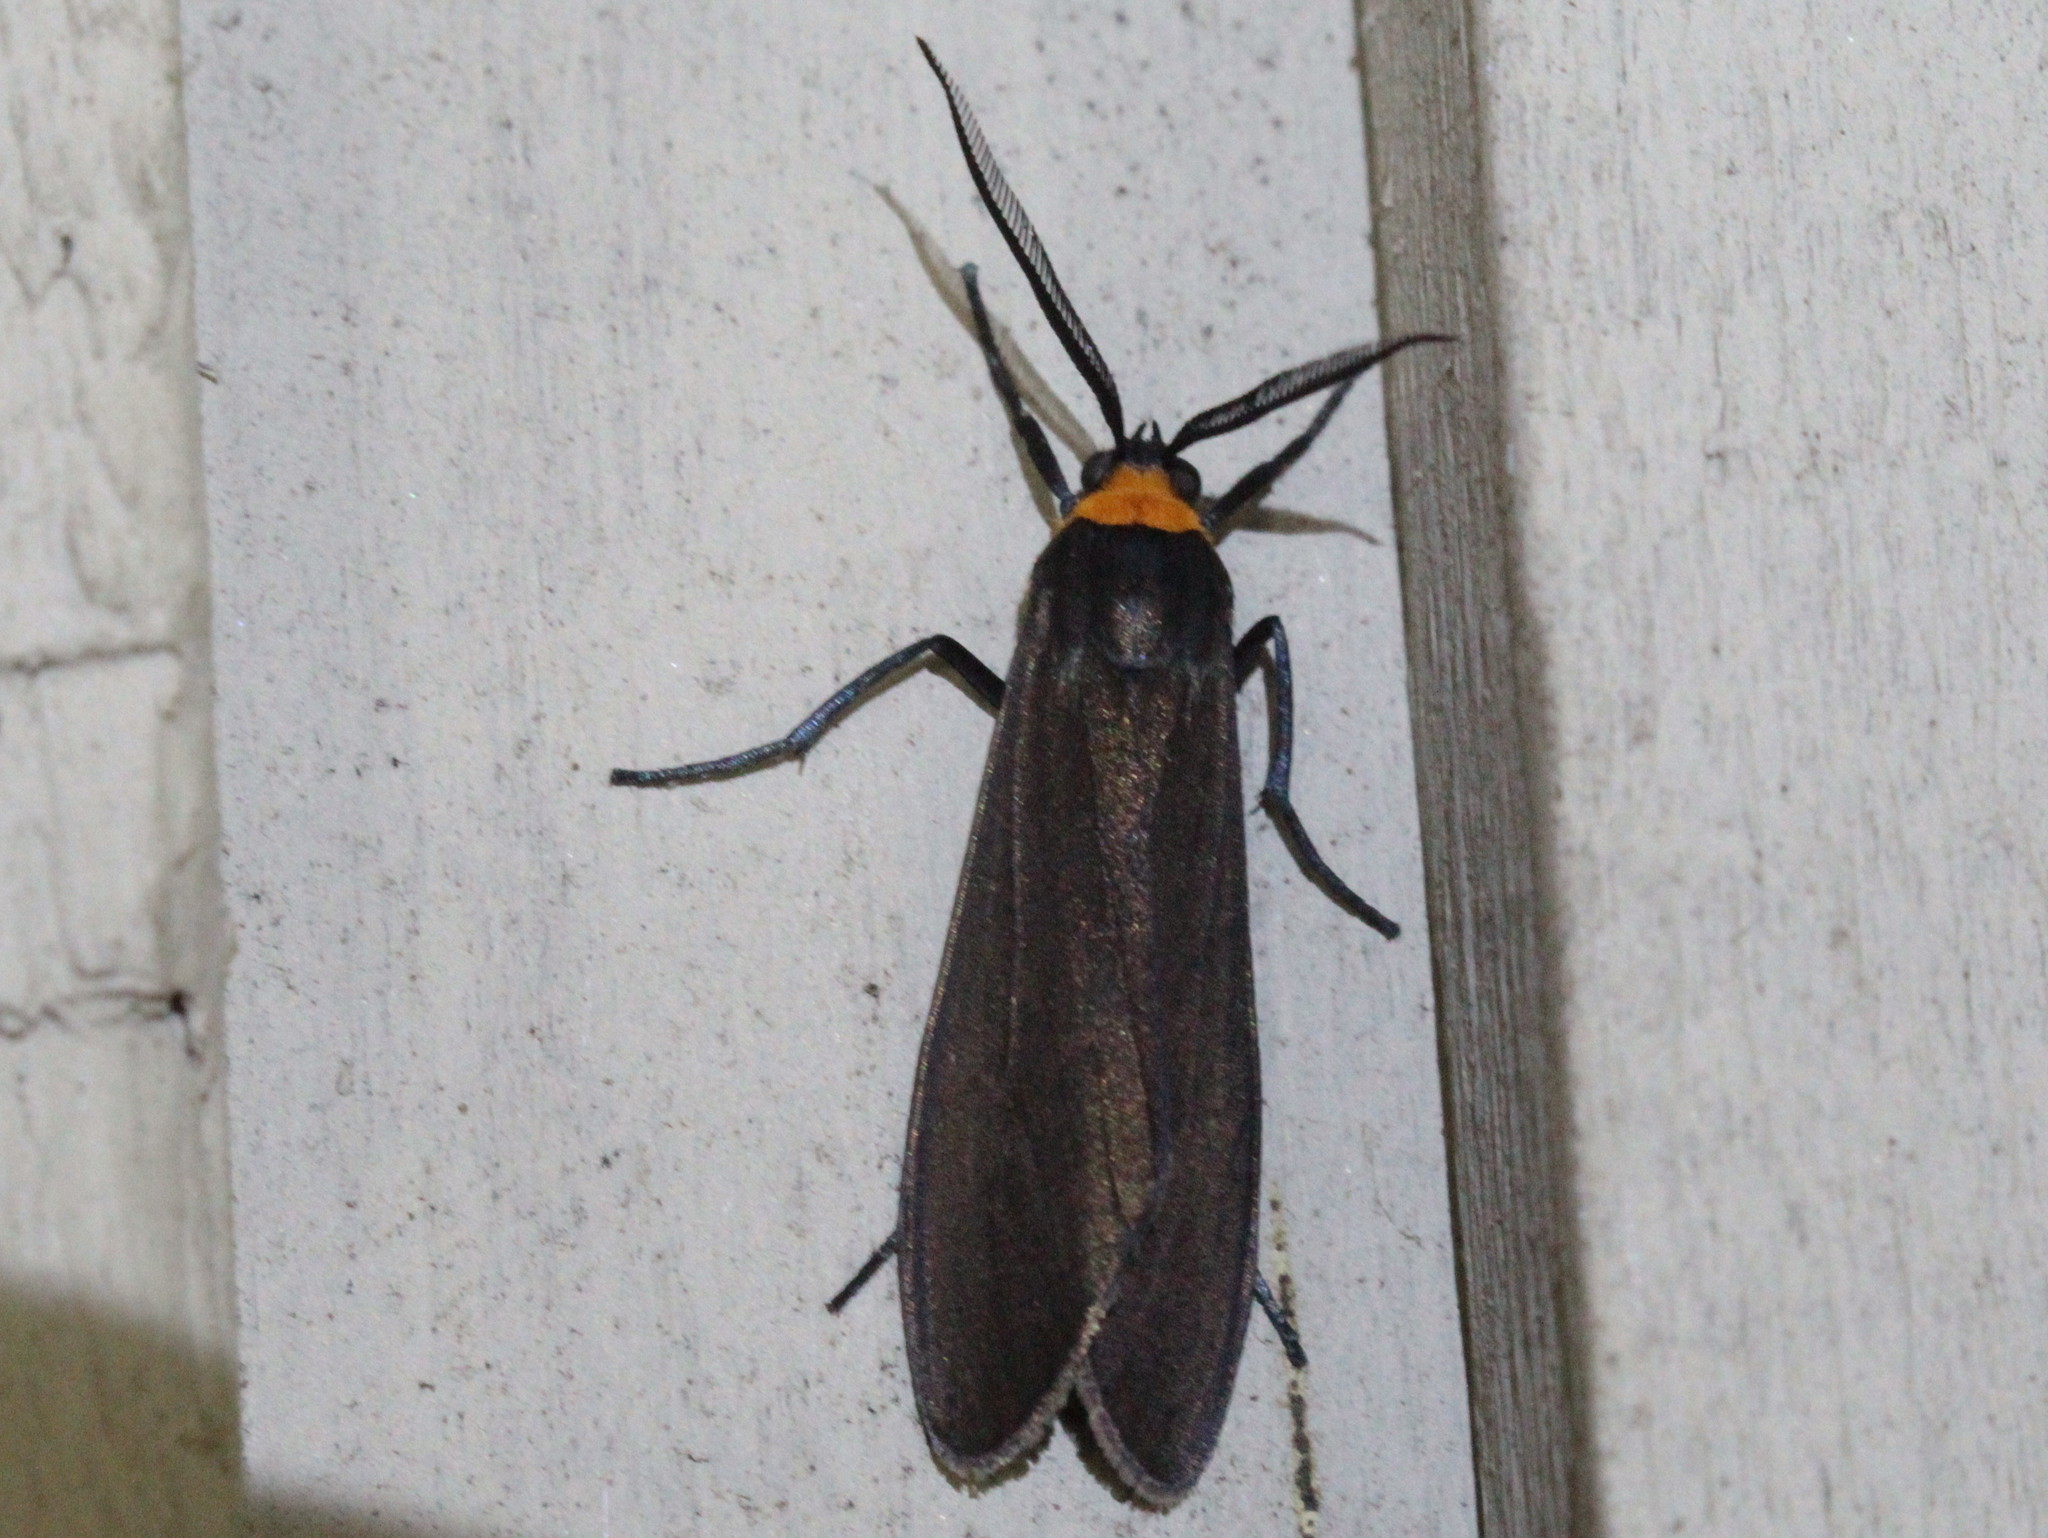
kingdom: Animalia
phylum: Arthropoda
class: Insecta
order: Lepidoptera
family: Erebidae
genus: Cisseps
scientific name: Cisseps fulvicollis
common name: Yellow-collared scape moth
